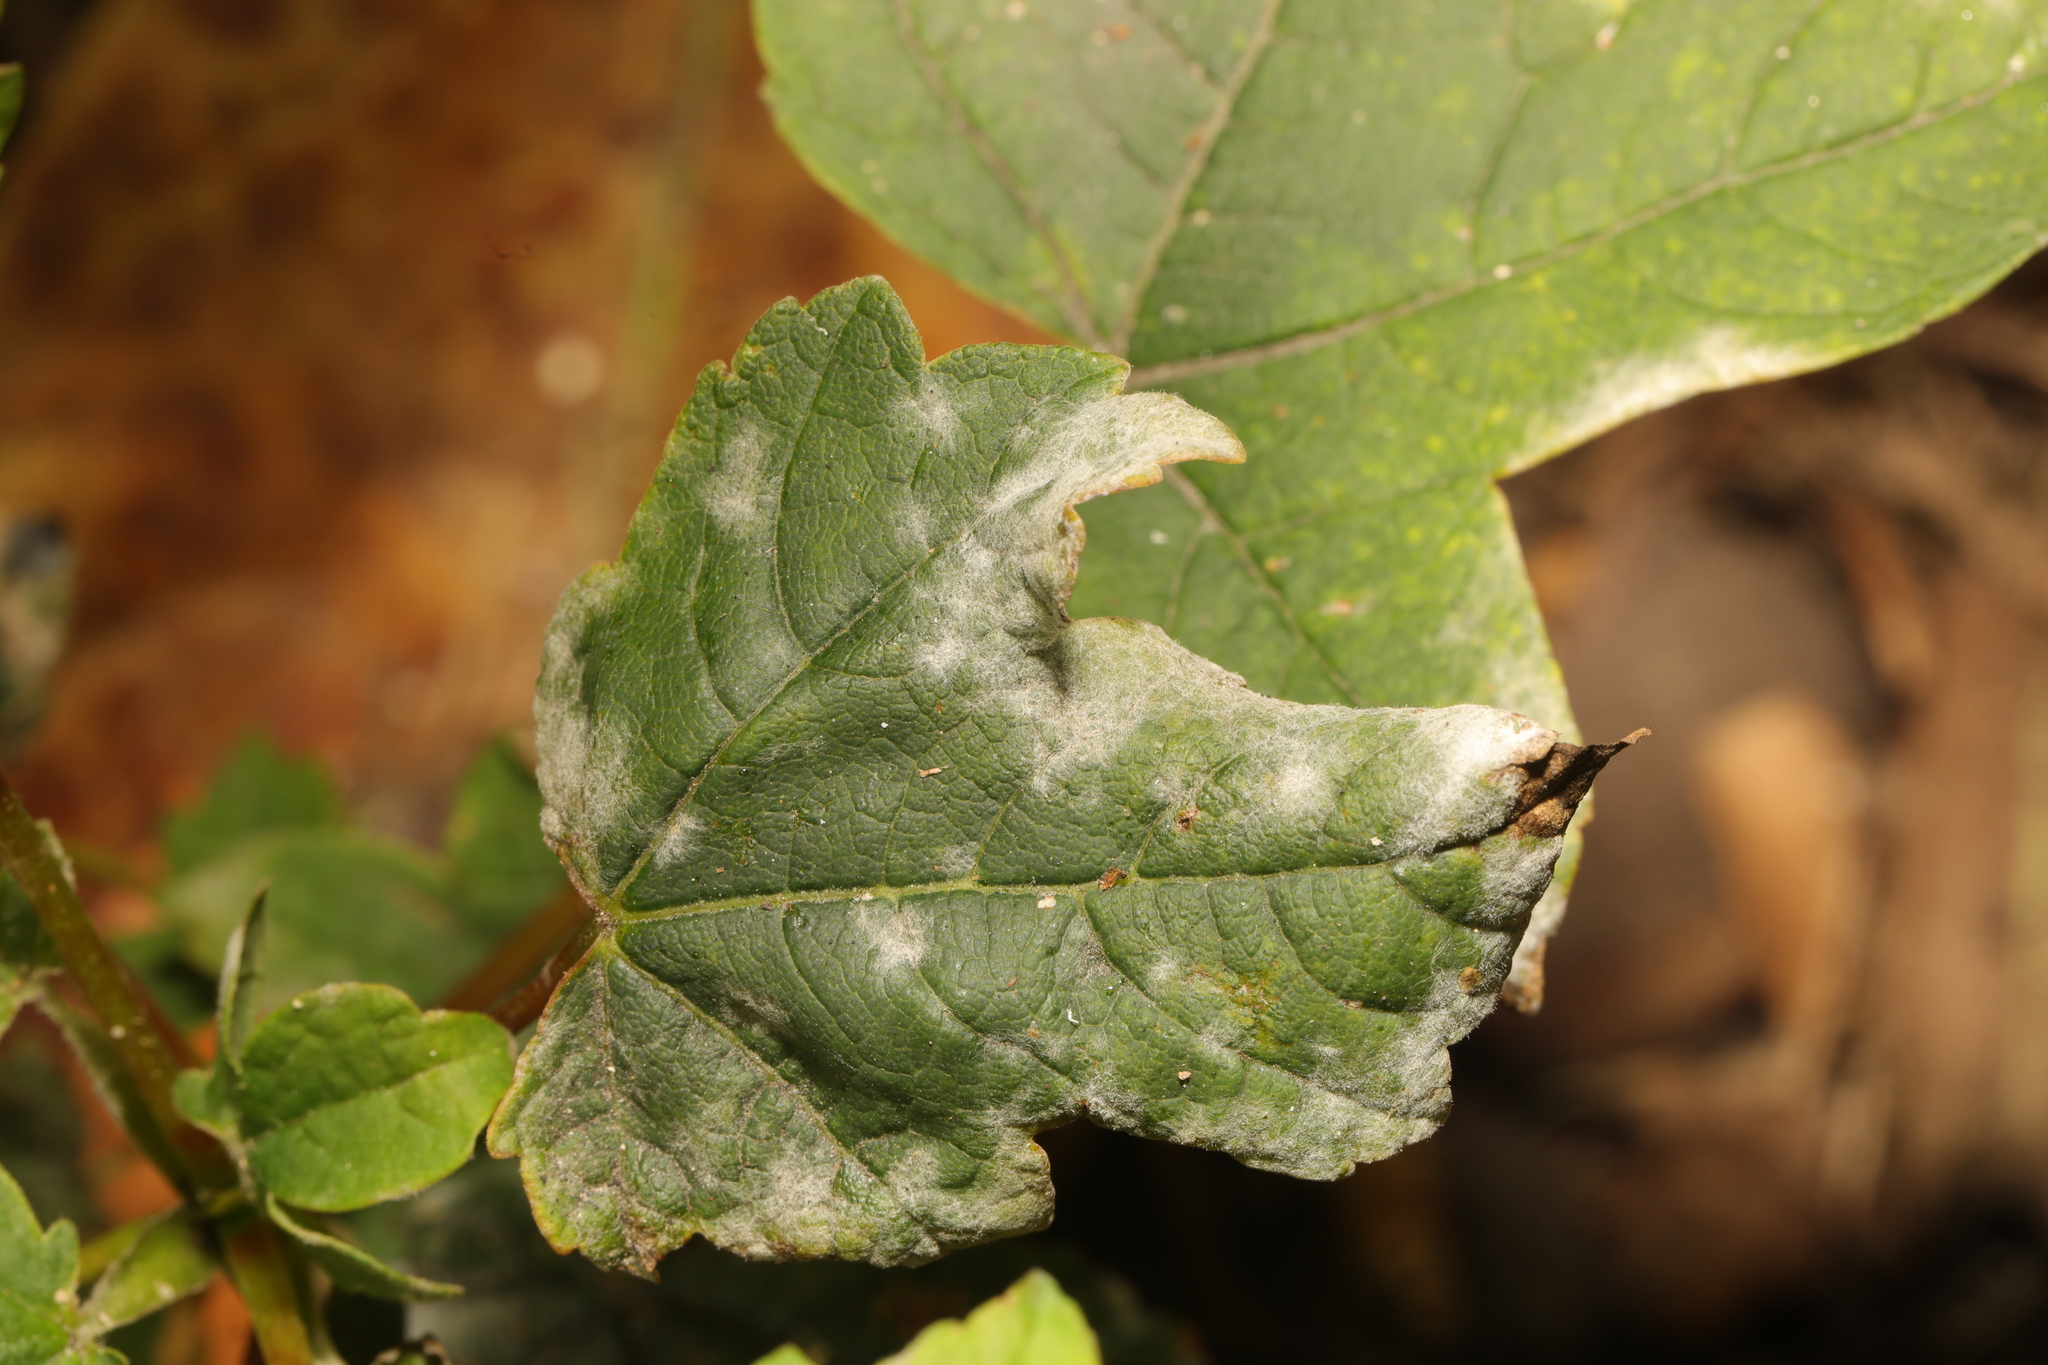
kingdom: Fungi
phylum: Ascomycota
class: Leotiomycetes
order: Helotiales
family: Erysiphaceae
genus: Sawadaea
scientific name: Sawadaea bicornis
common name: Maple mildew
